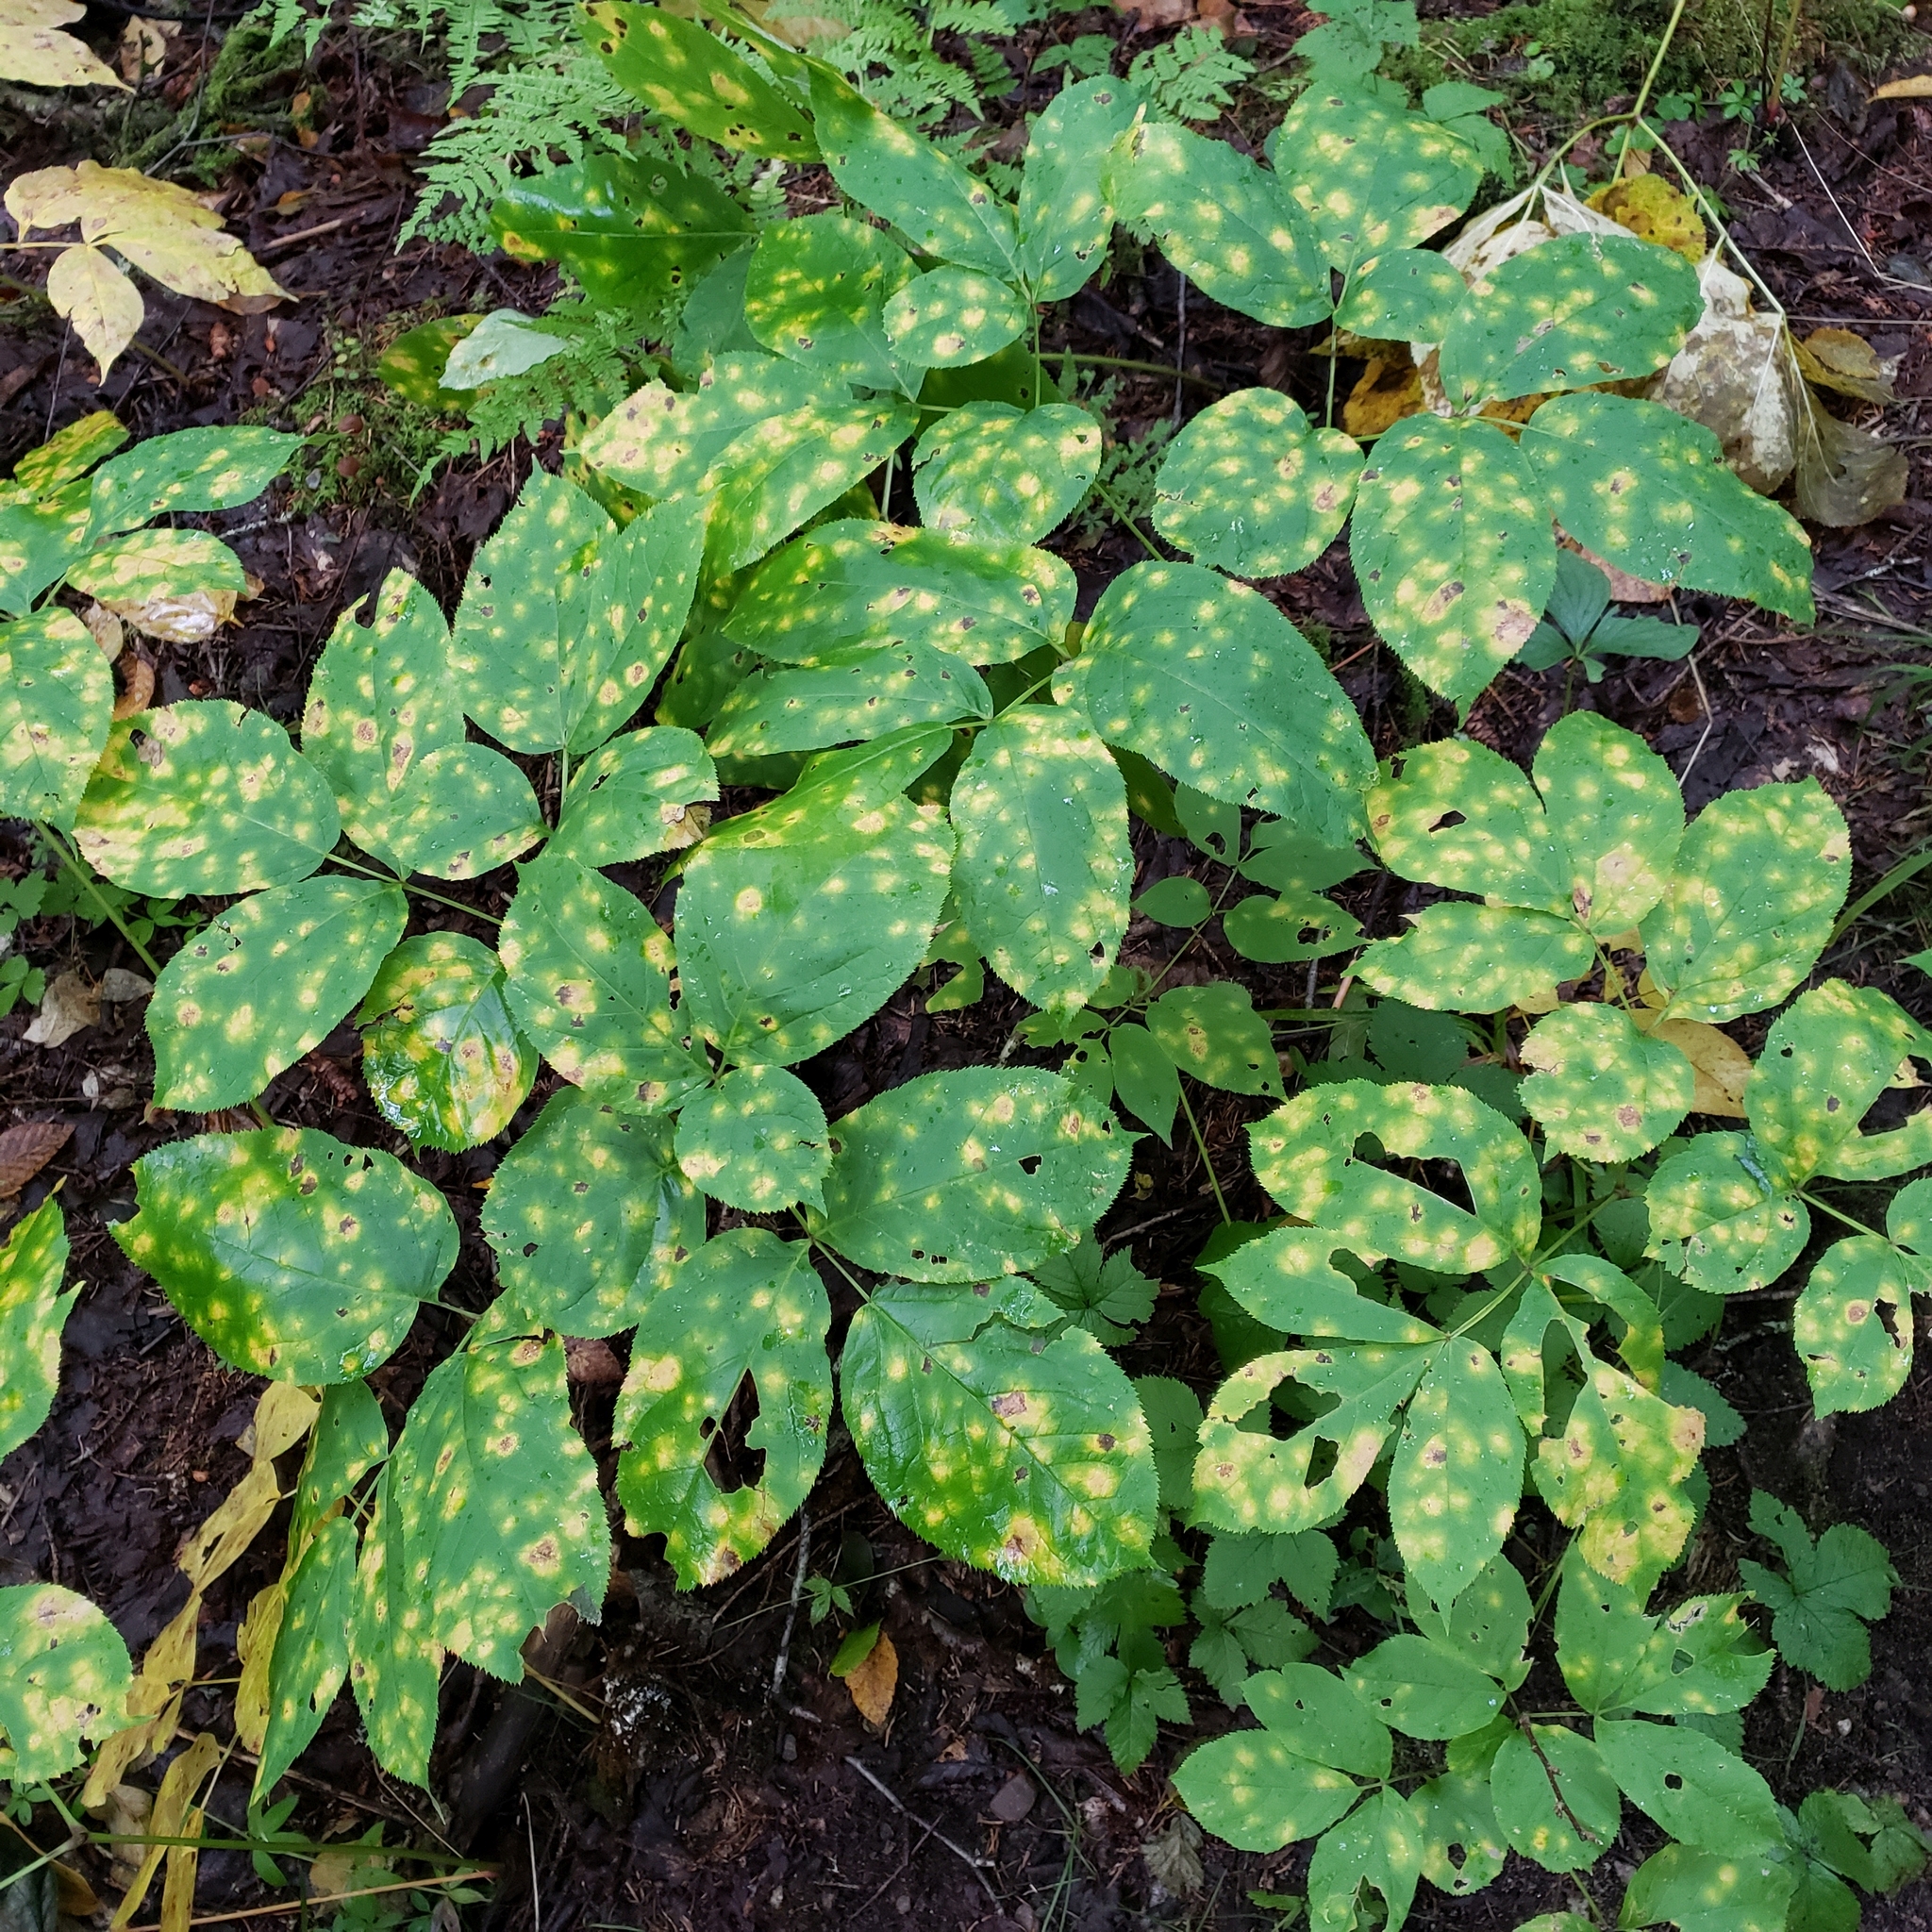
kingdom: Plantae
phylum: Tracheophyta
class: Magnoliopsida
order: Apiales
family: Araliaceae
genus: Aralia
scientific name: Aralia nudicaulis
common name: Wild sarsaparilla
